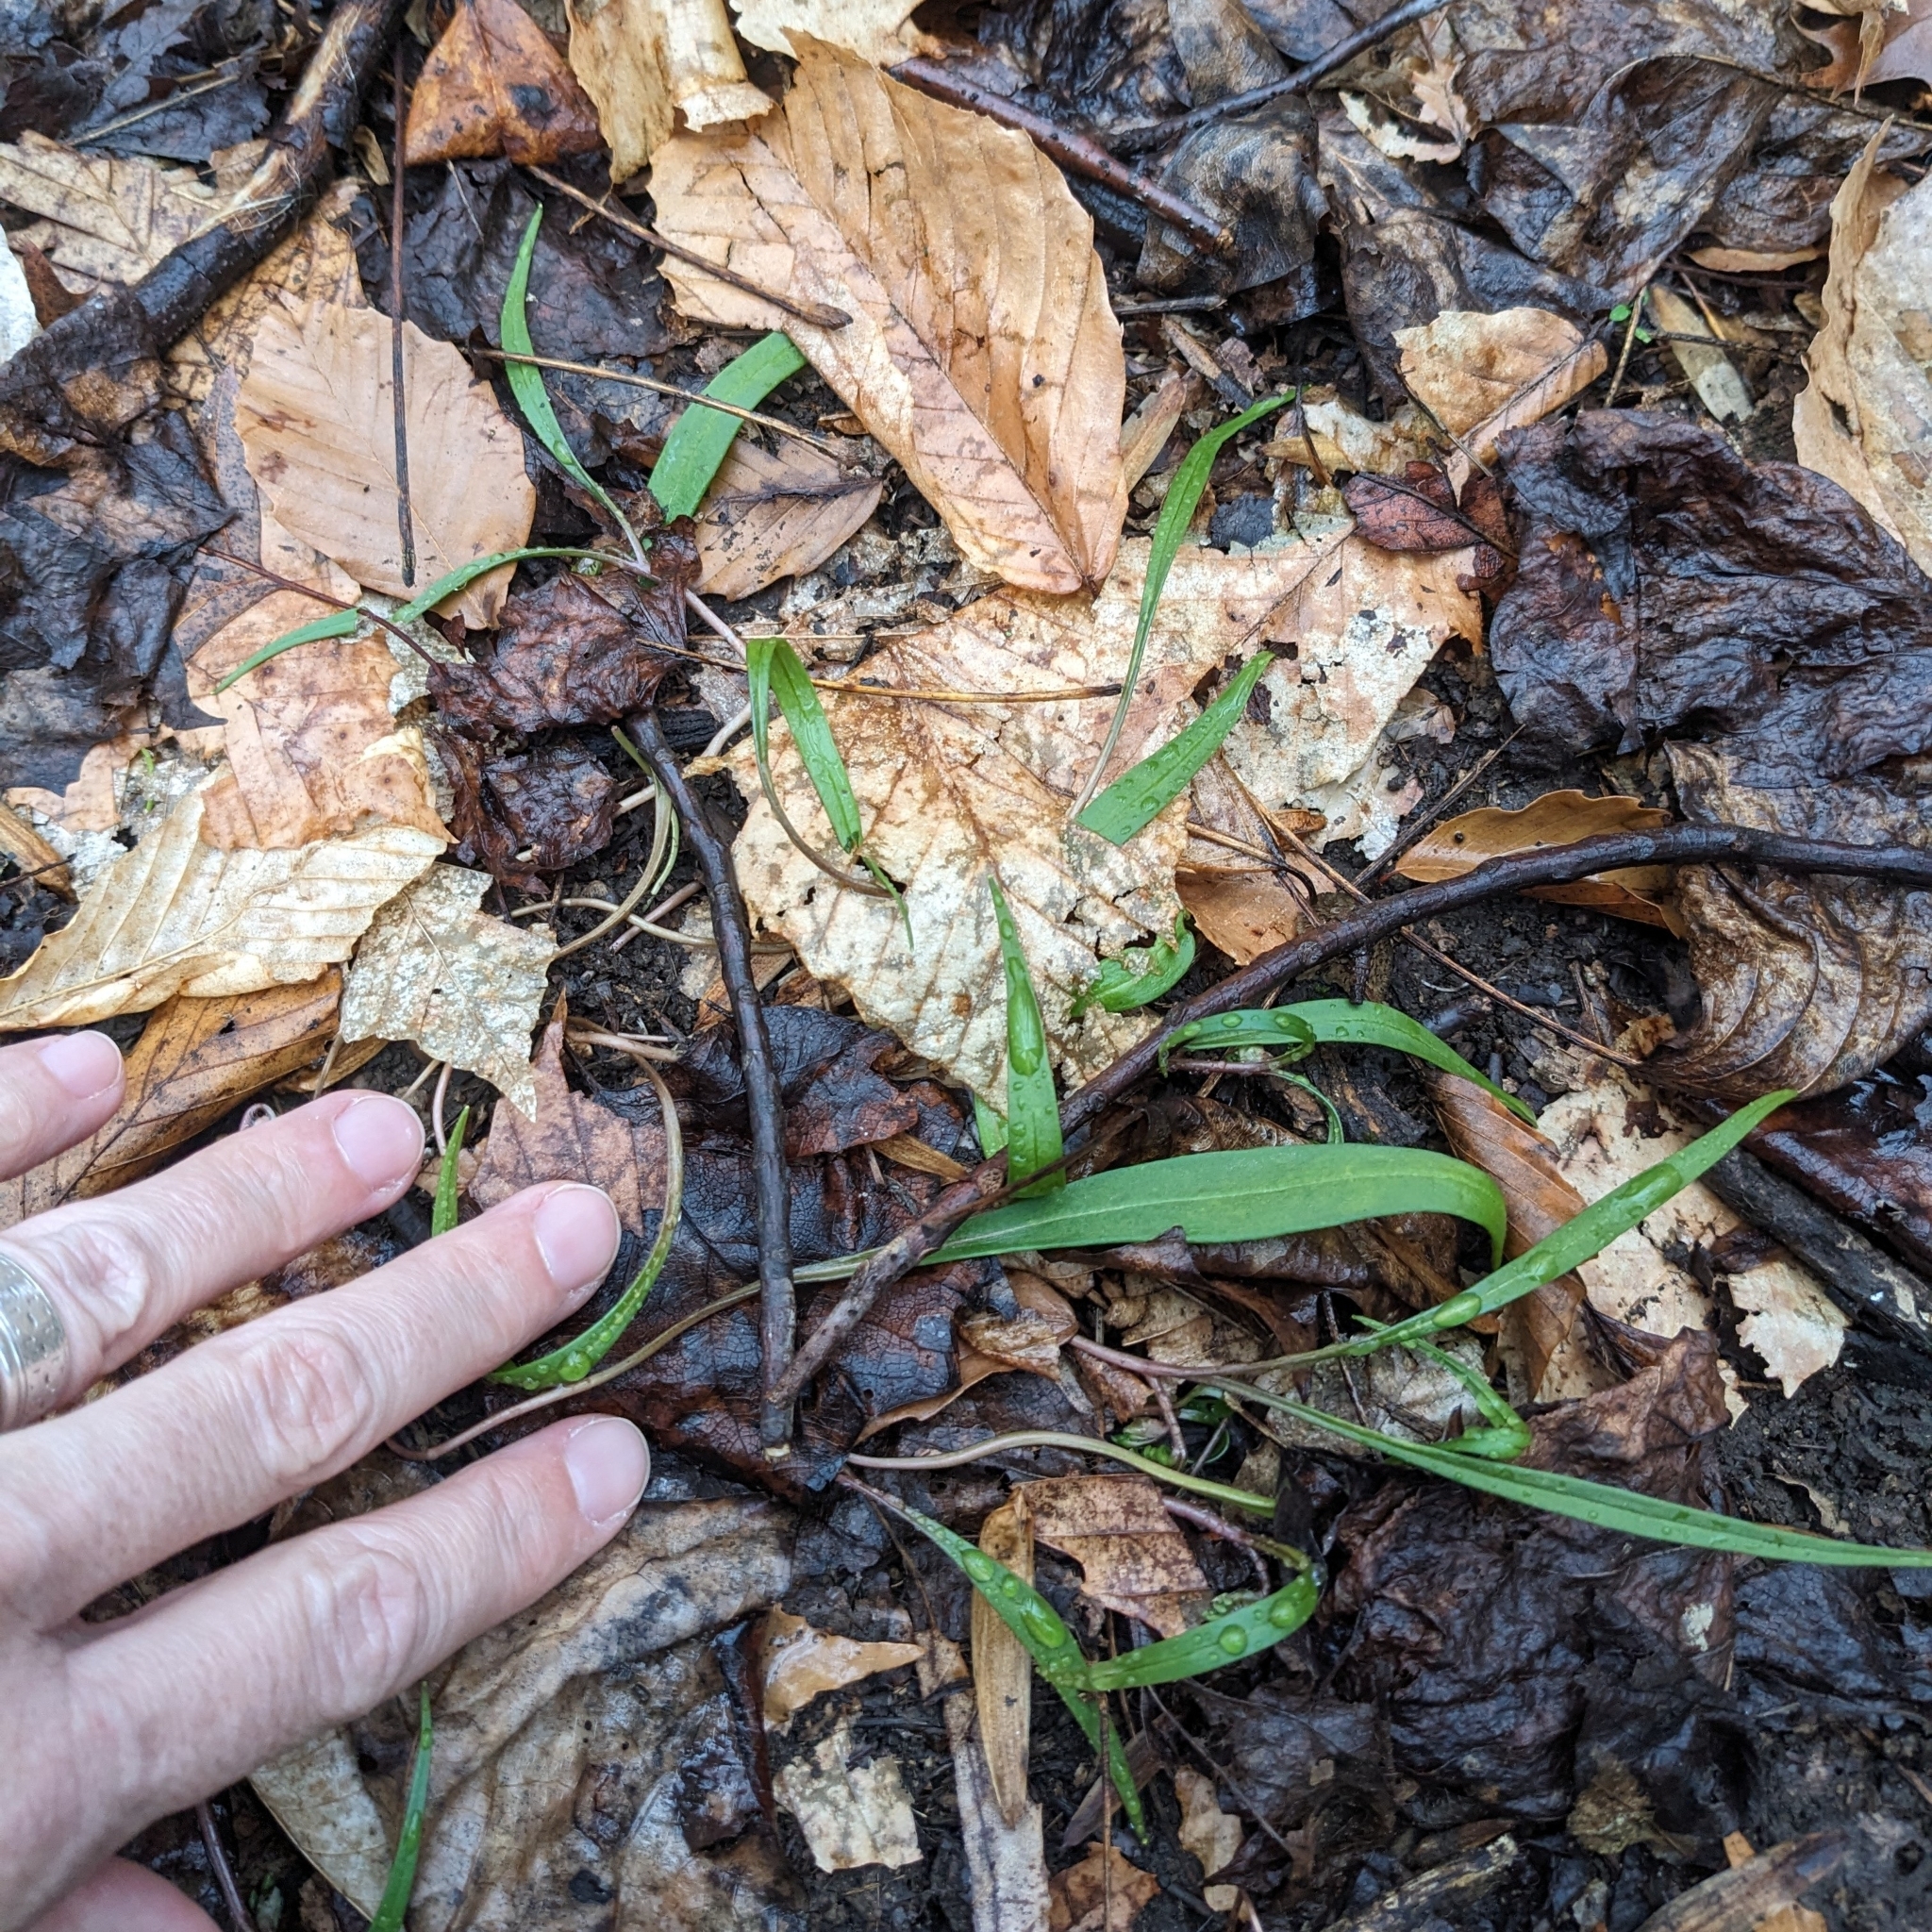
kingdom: Plantae
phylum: Tracheophyta
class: Magnoliopsida
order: Caryophyllales
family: Montiaceae
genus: Claytonia
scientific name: Claytonia virginica
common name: Virginia springbeauty
